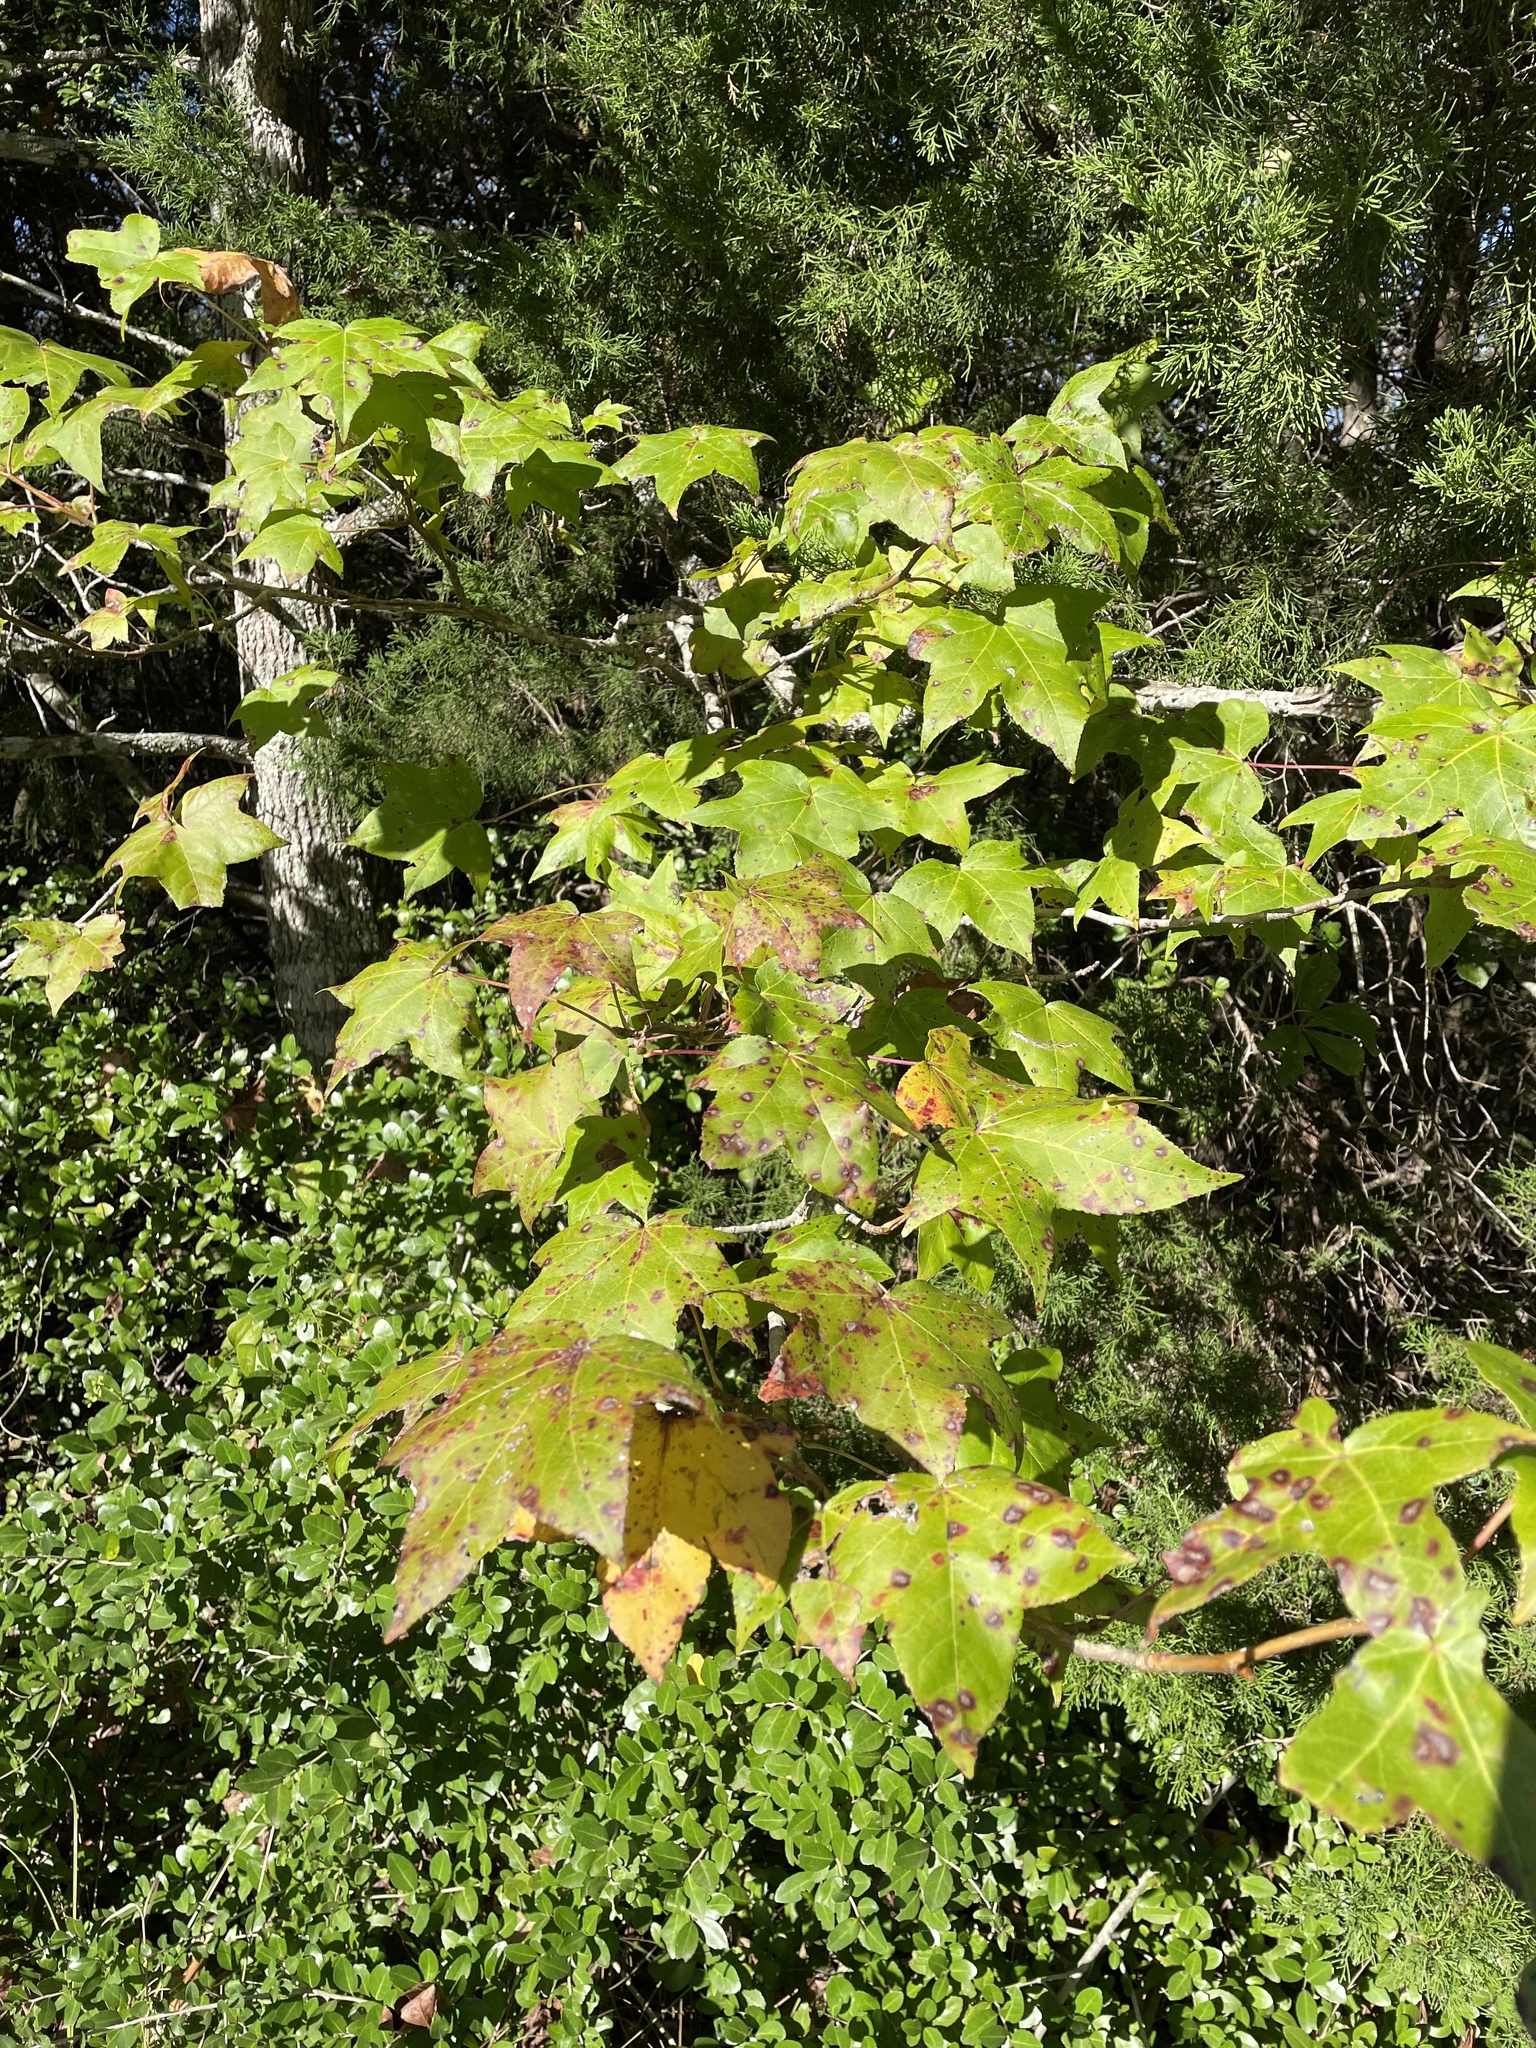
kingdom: Plantae
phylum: Tracheophyta
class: Magnoliopsida
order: Saxifragales
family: Altingiaceae
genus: Liquidambar
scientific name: Liquidambar styraciflua
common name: Sweet gum
